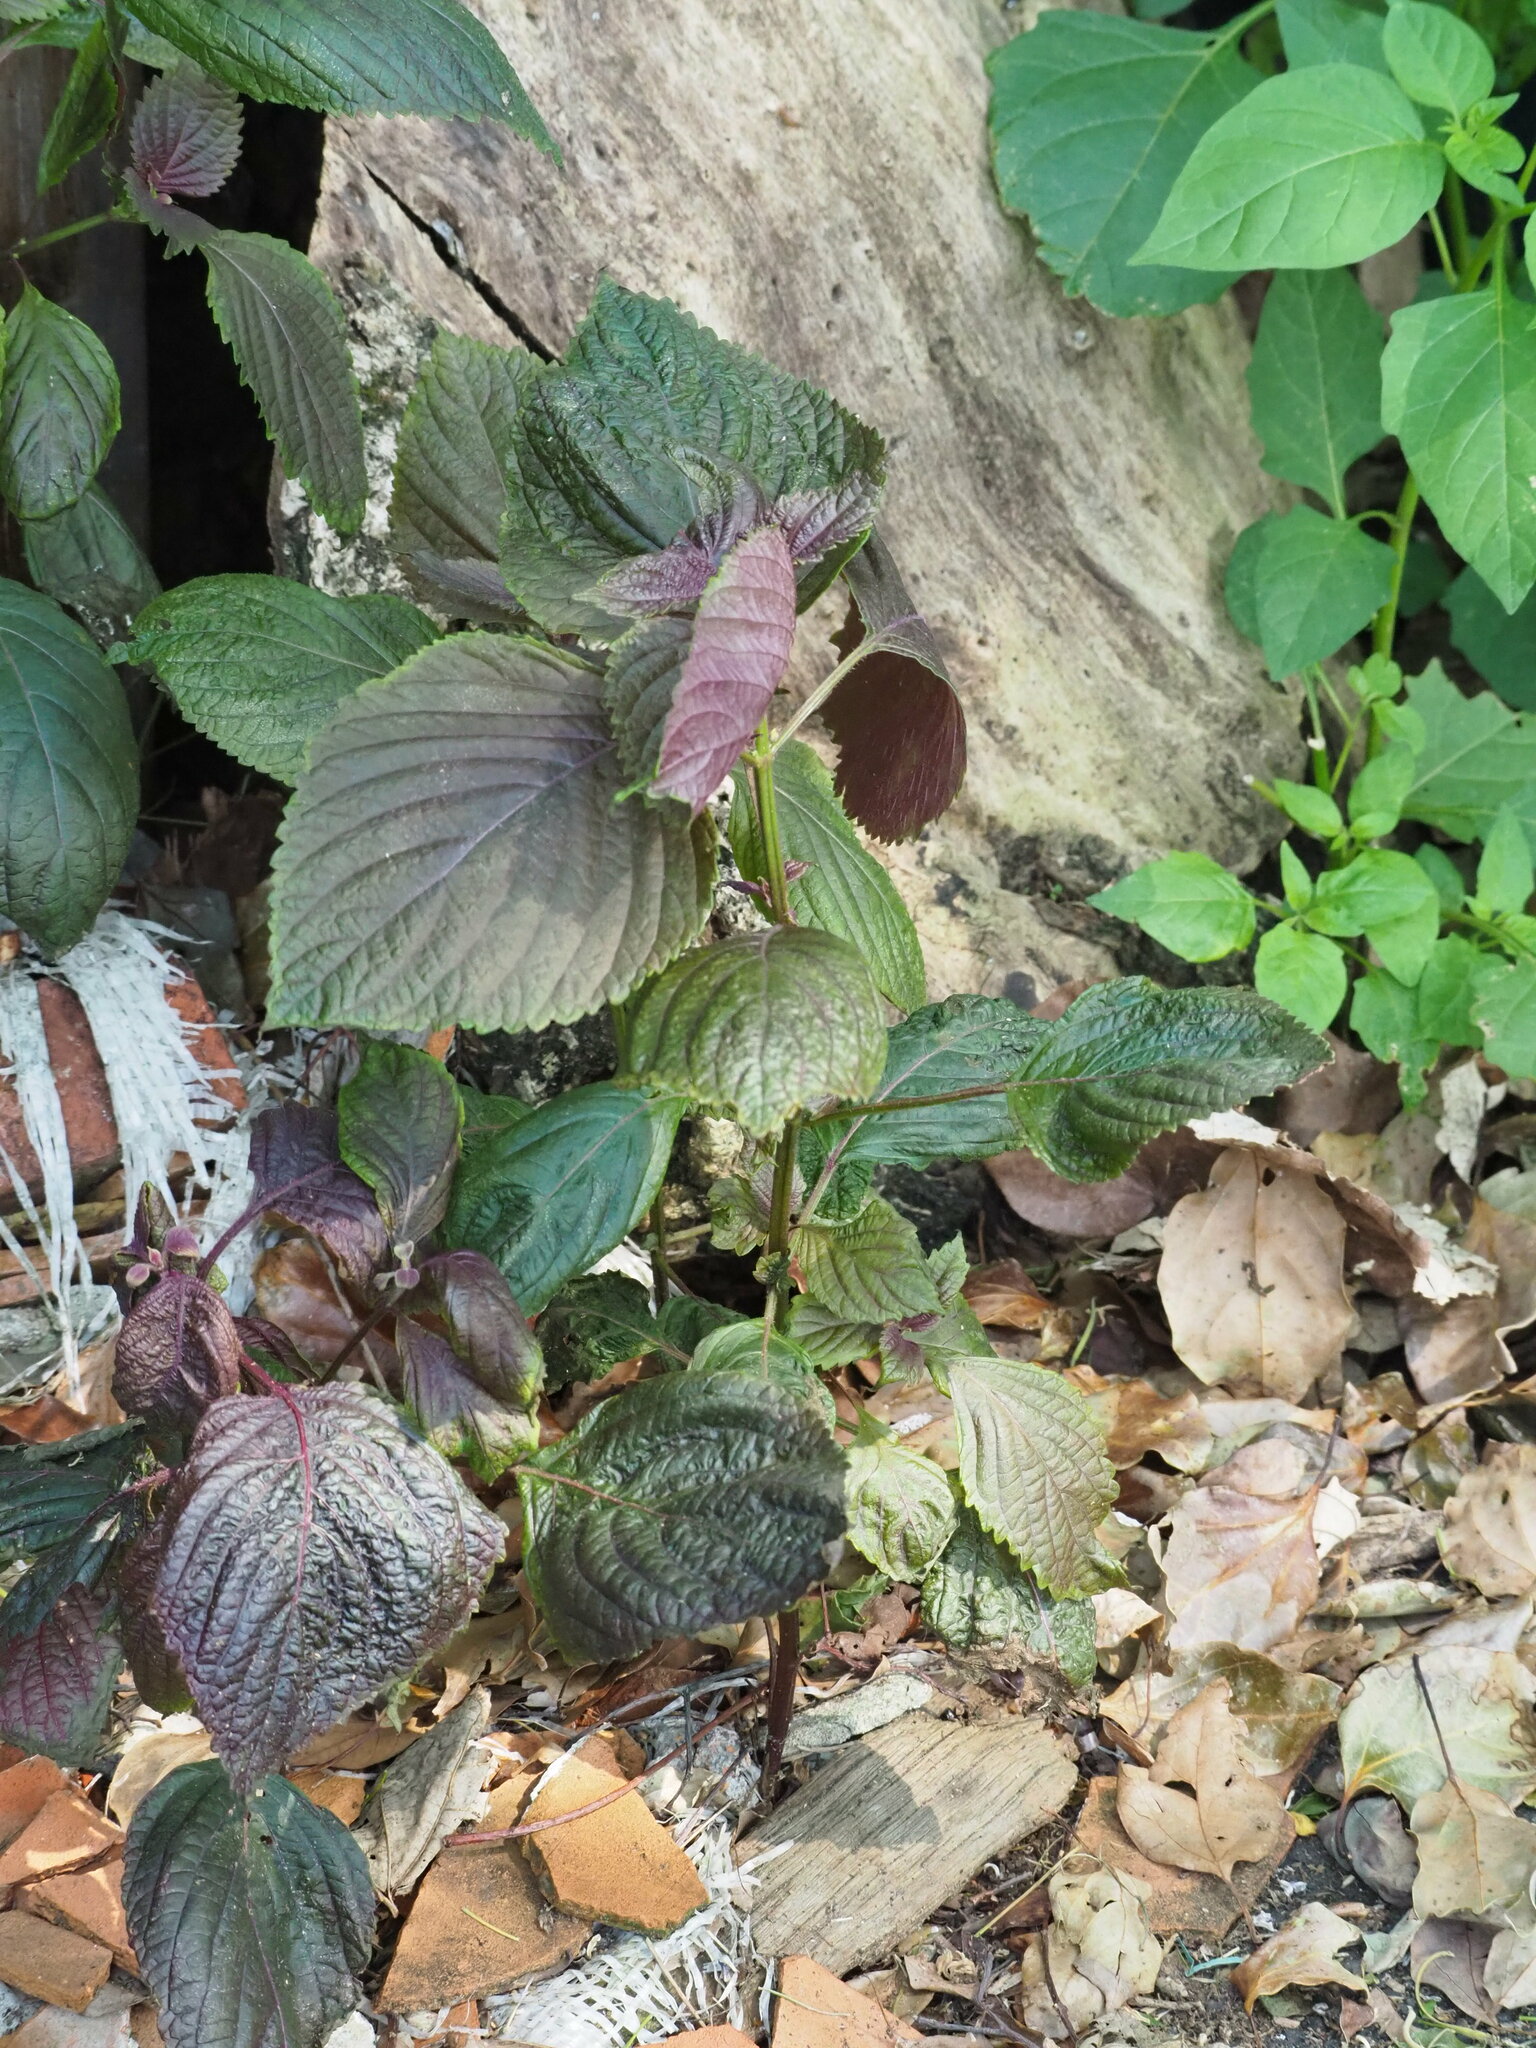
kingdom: Plantae
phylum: Tracheophyta
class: Magnoliopsida
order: Lamiales
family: Lamiaceae
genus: Perilla
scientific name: Perilla frutescens
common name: Perilla
